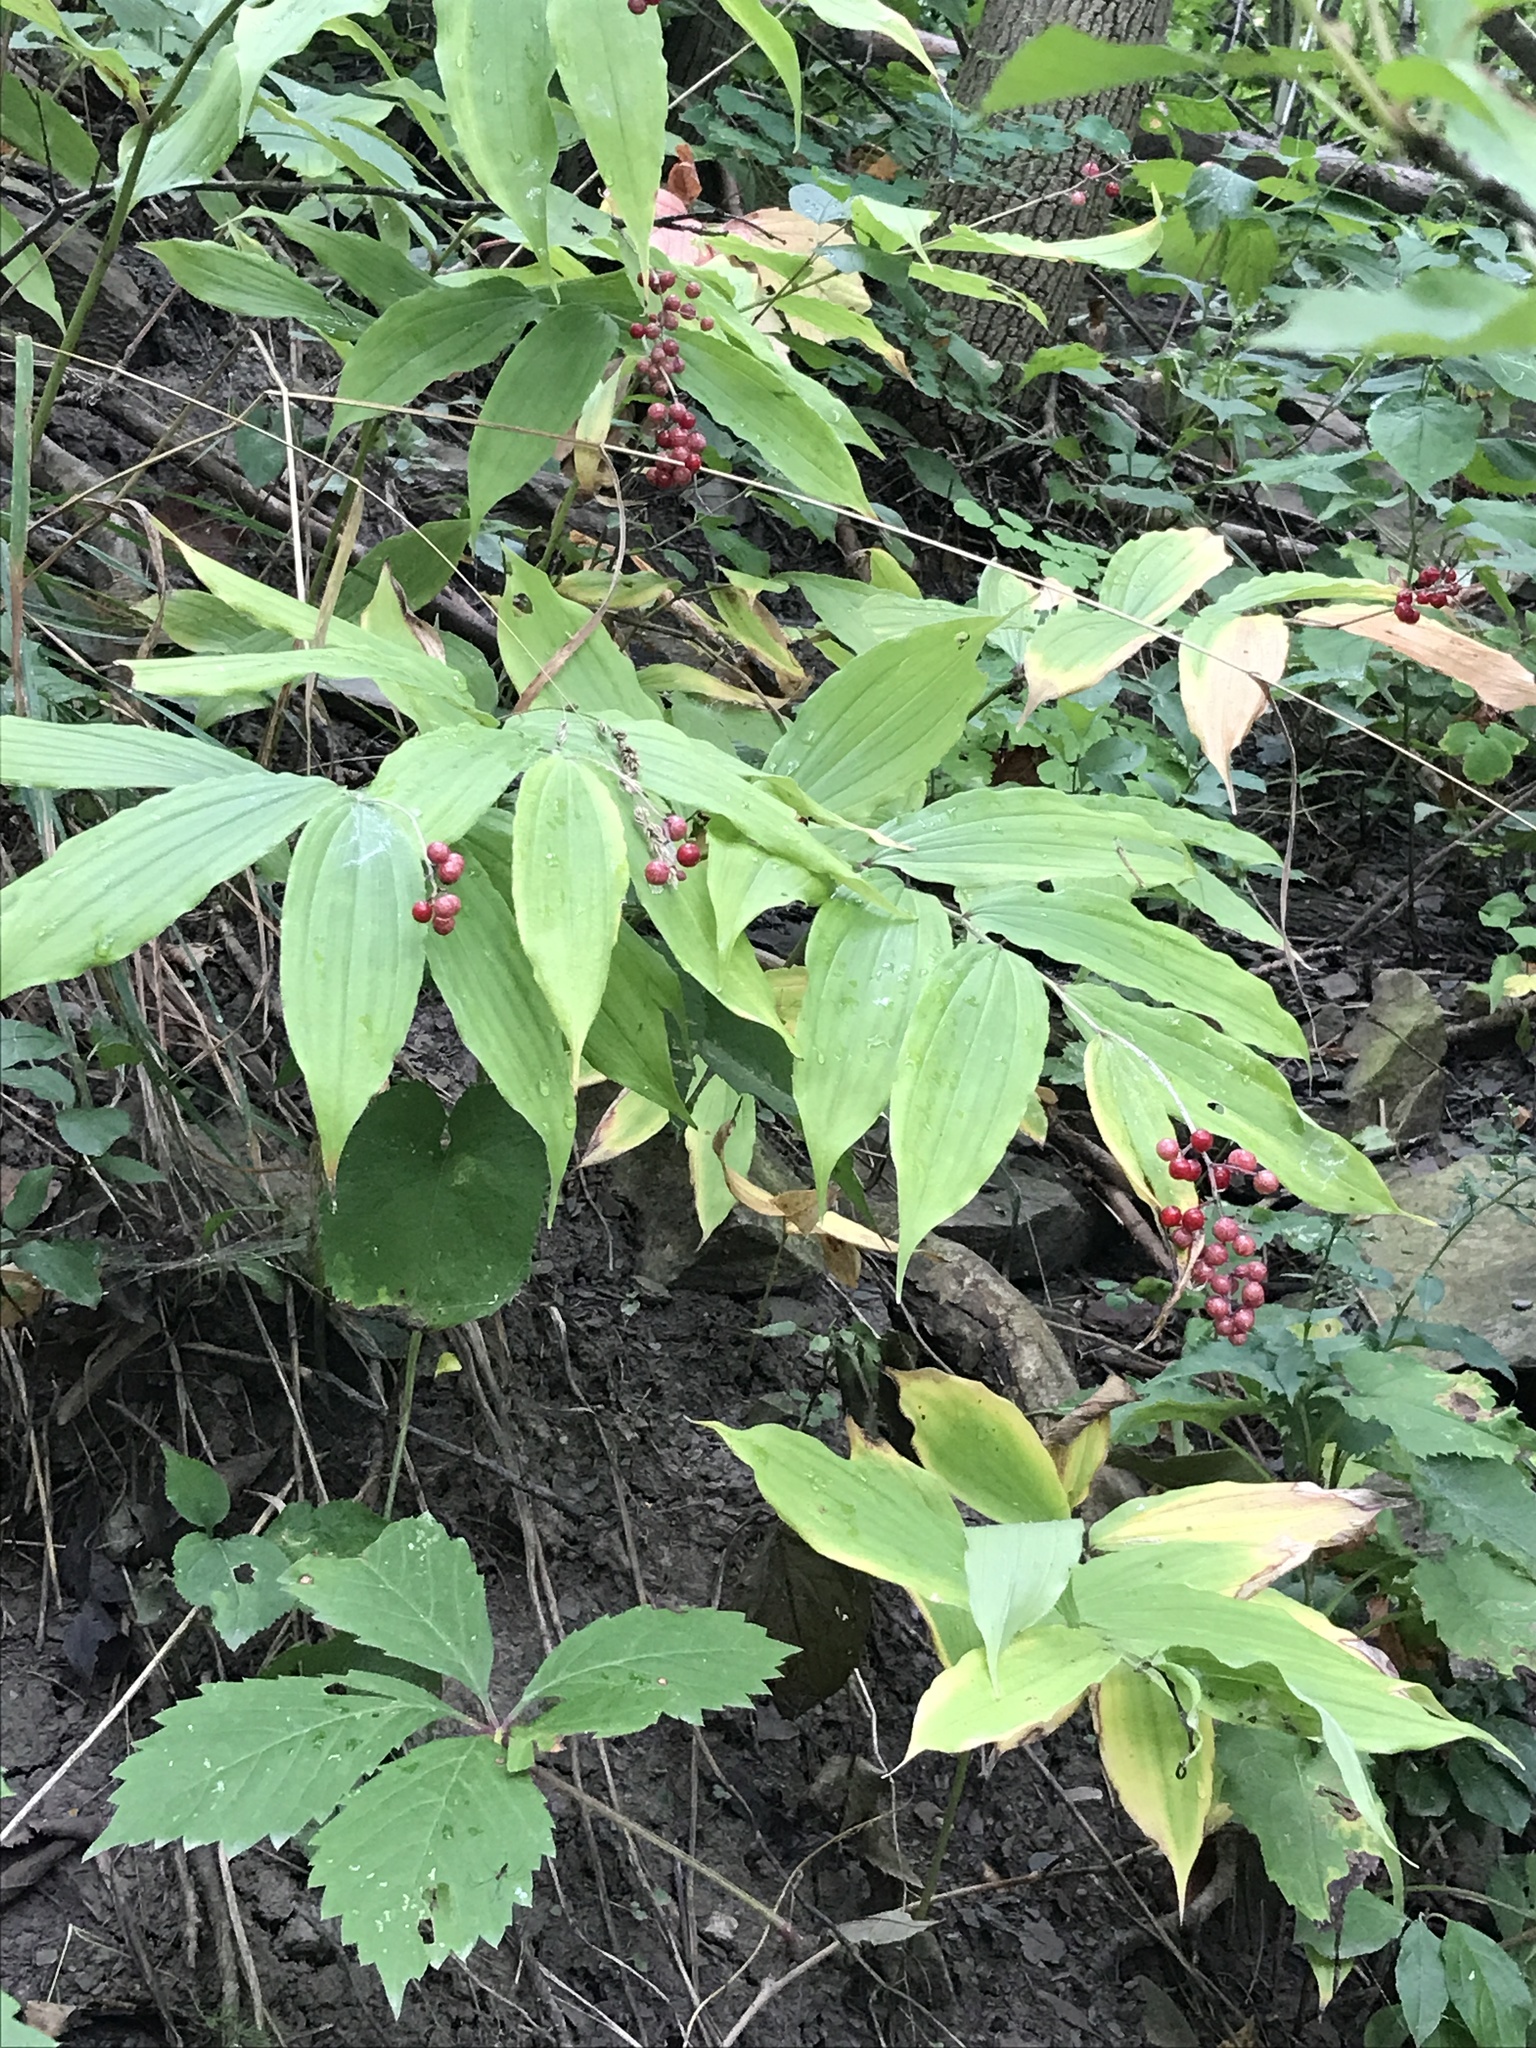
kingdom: Plantae
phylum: Tracheophyta
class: Liliopsida
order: Asparagales
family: Asparagaceae
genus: Maianthemum
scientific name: Maianthemum racemosum
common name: False spikenard
